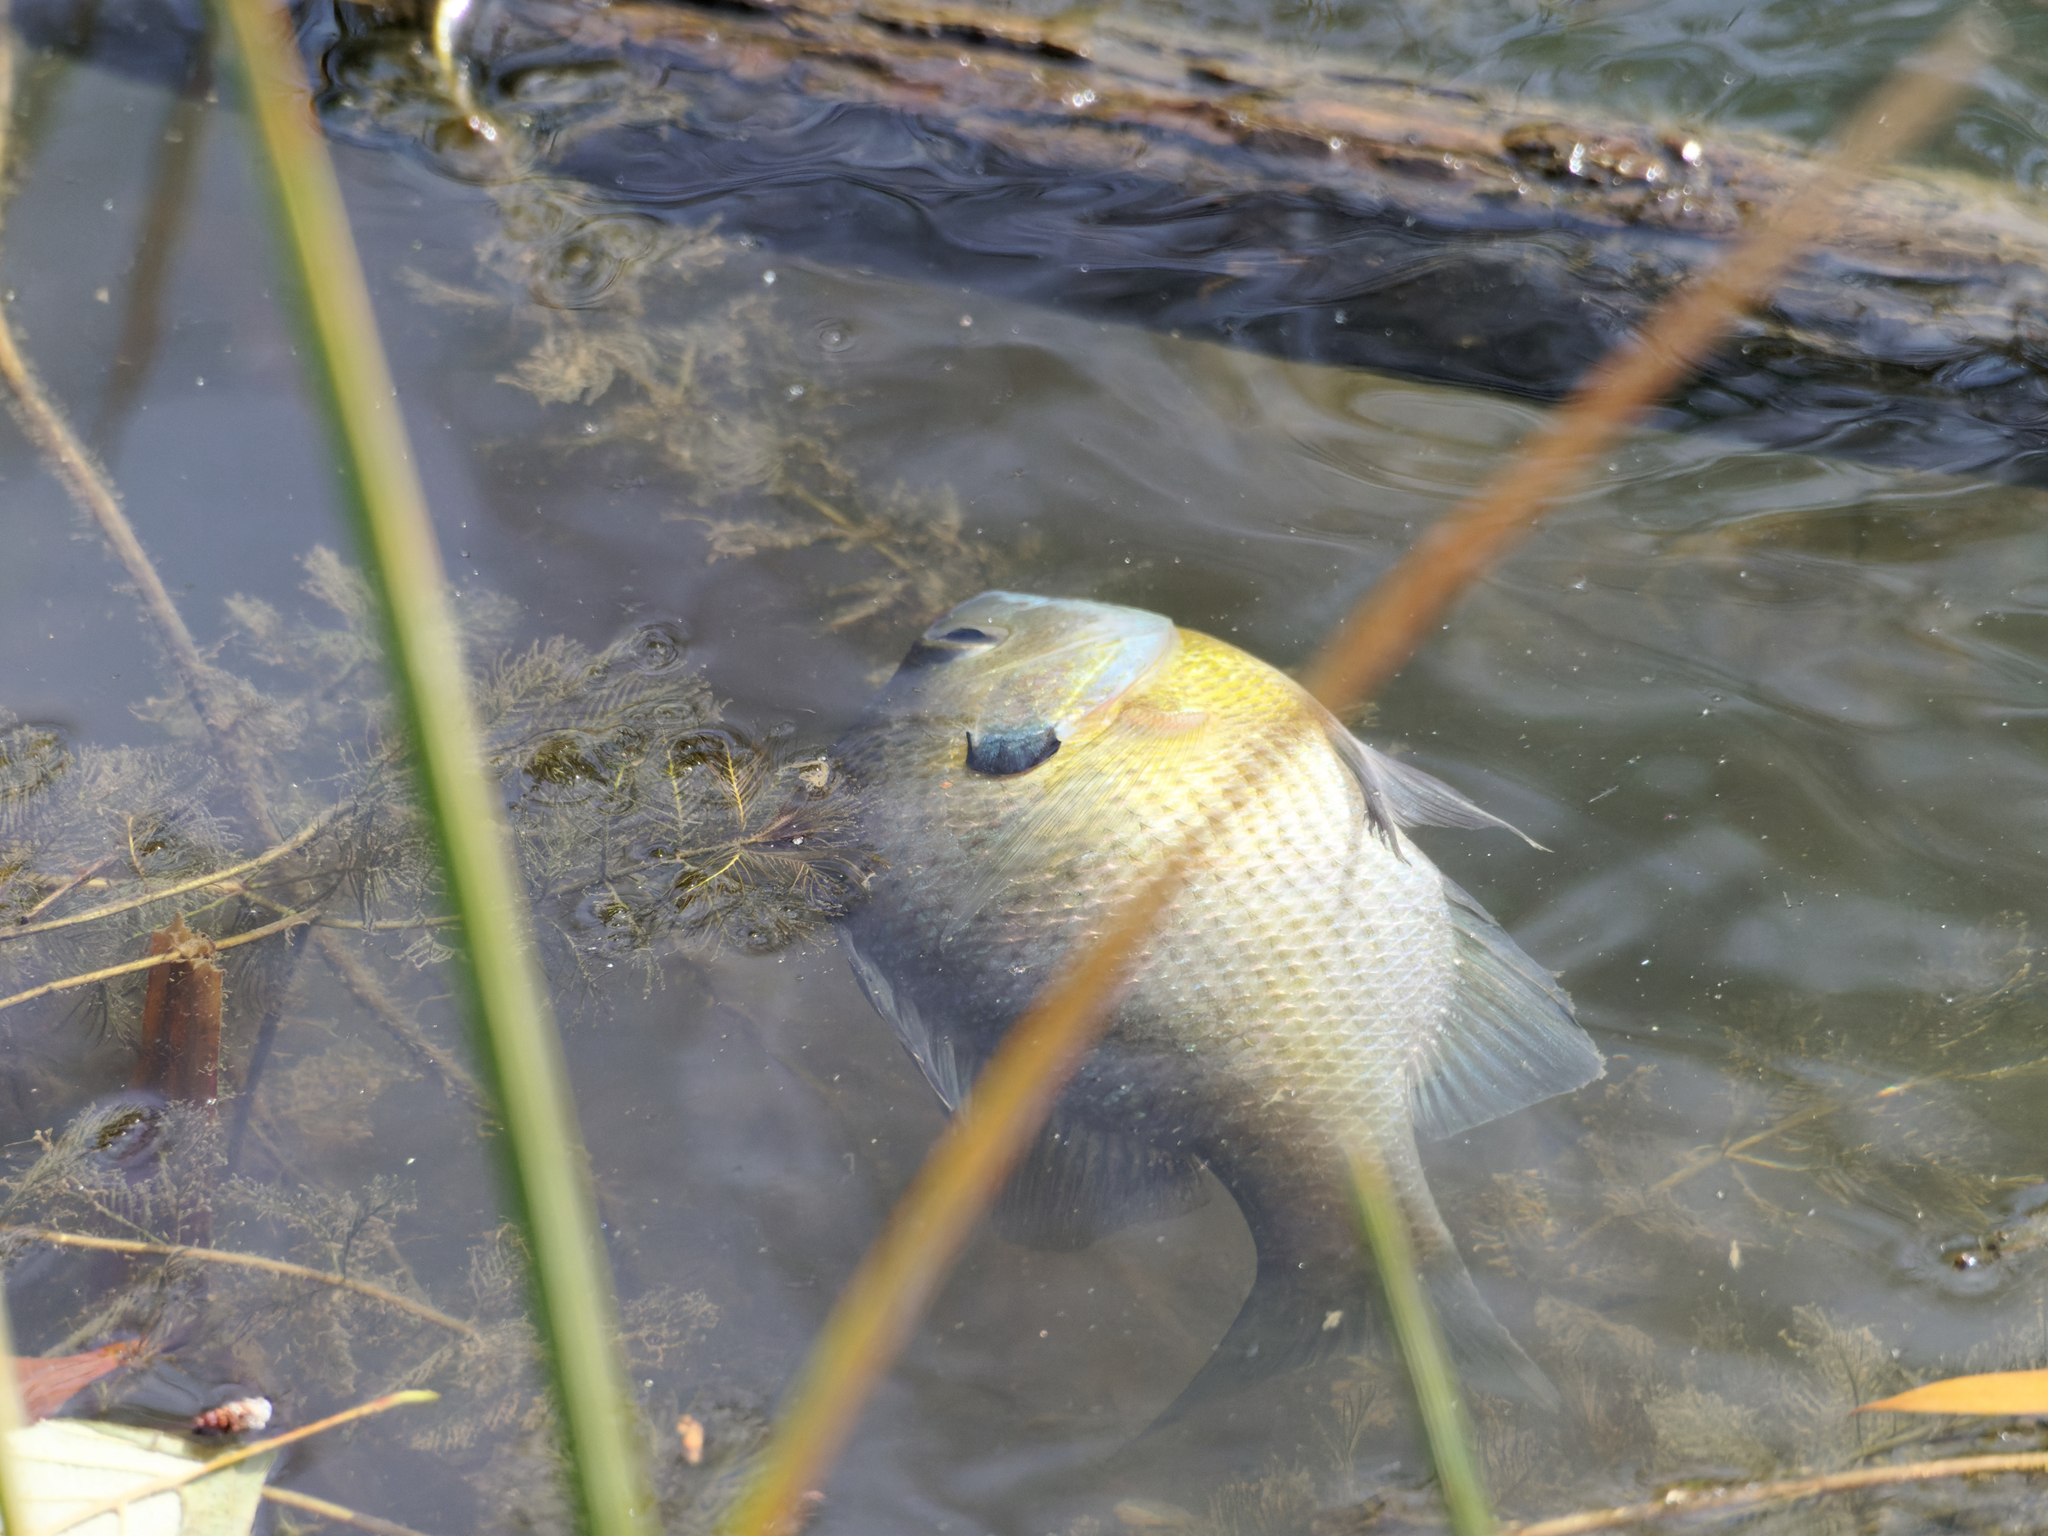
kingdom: Animalia
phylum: Chordata
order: Perciformes
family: Centrarchidae
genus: Lepomis
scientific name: Lepomis macrochirus
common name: Bluegill
